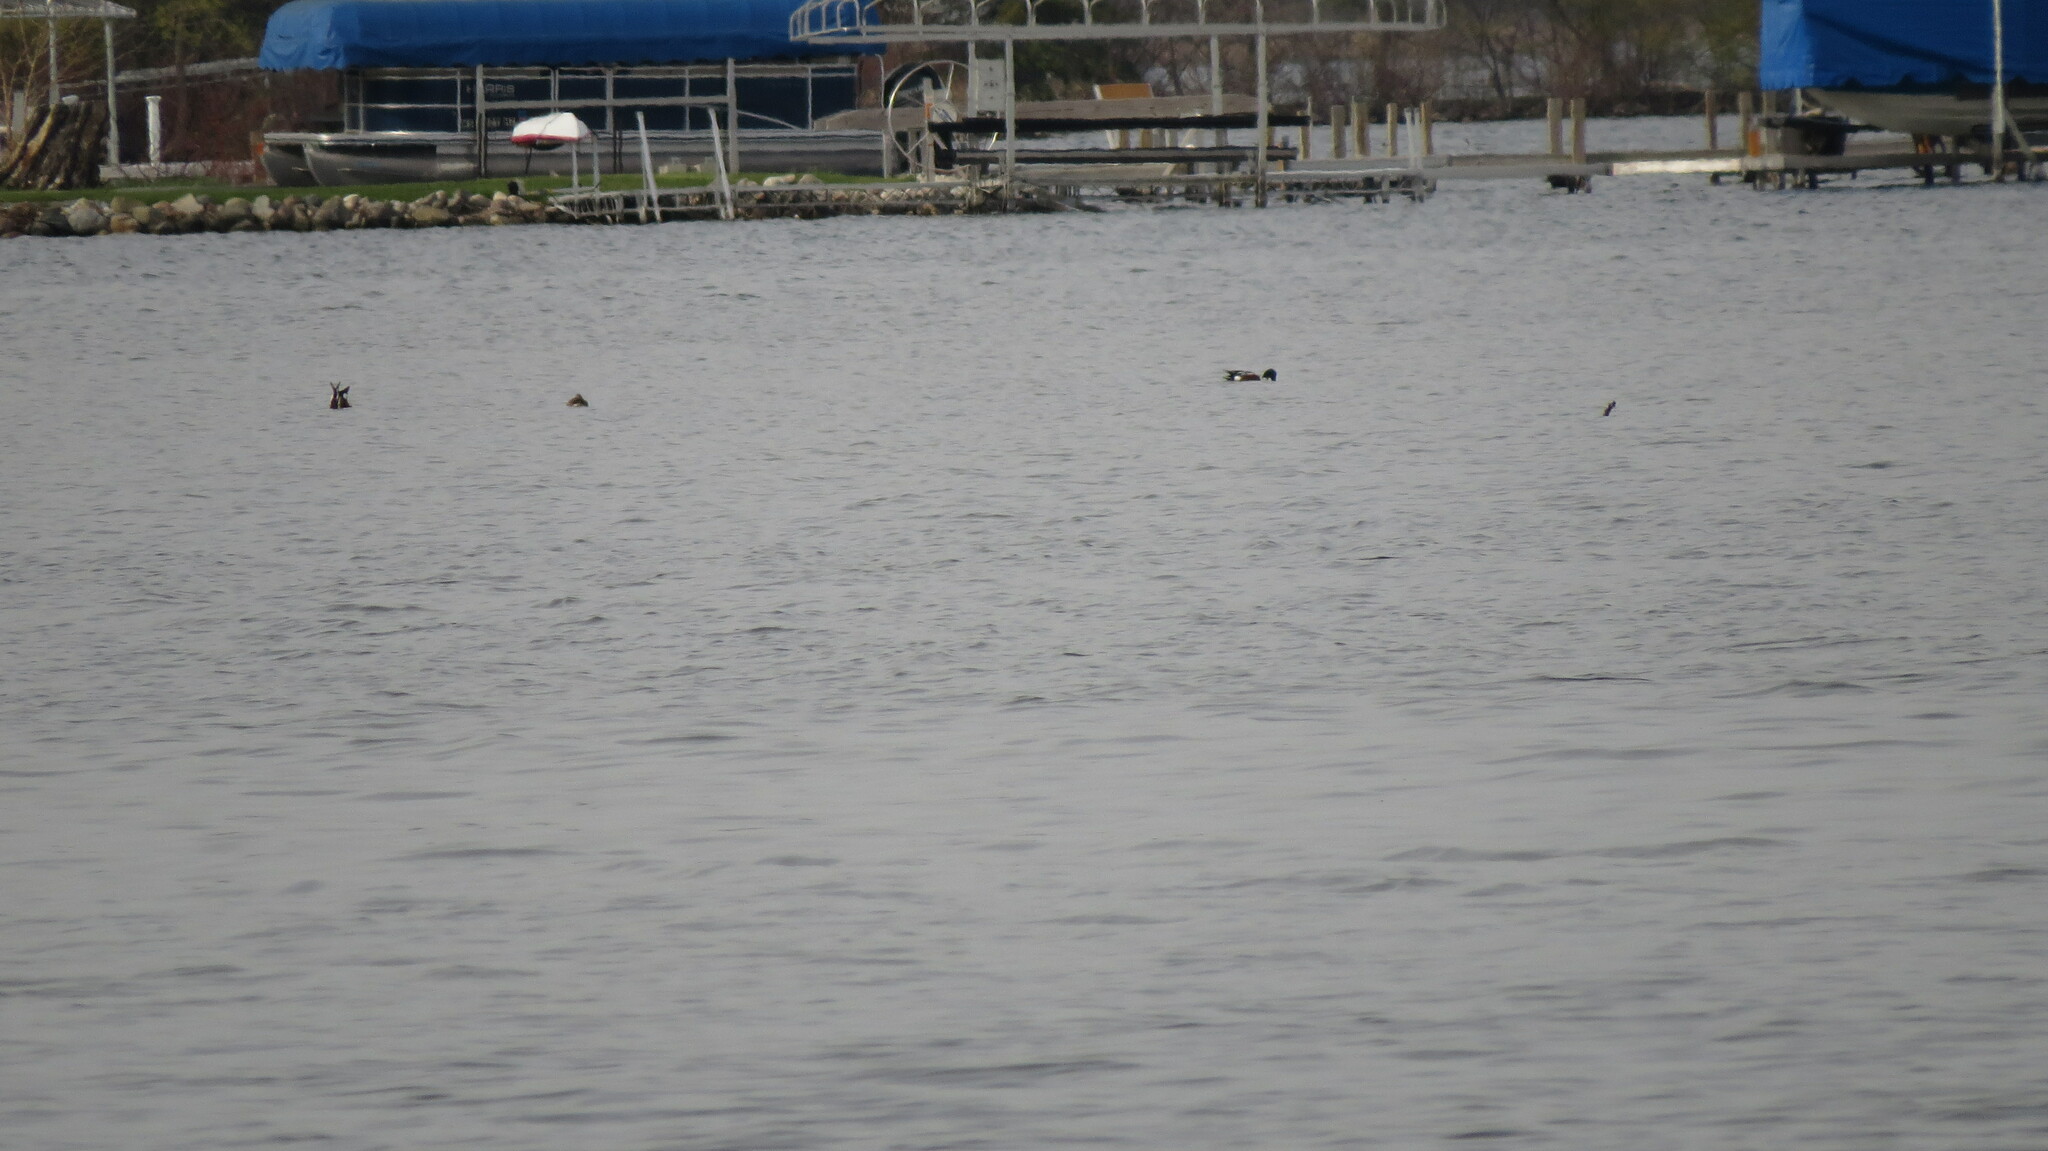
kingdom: Animalia
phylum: Chordata
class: Aves
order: Anseriformes
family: Anatidae
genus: Spatula
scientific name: Spatula clypeata
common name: Northern shoveler
